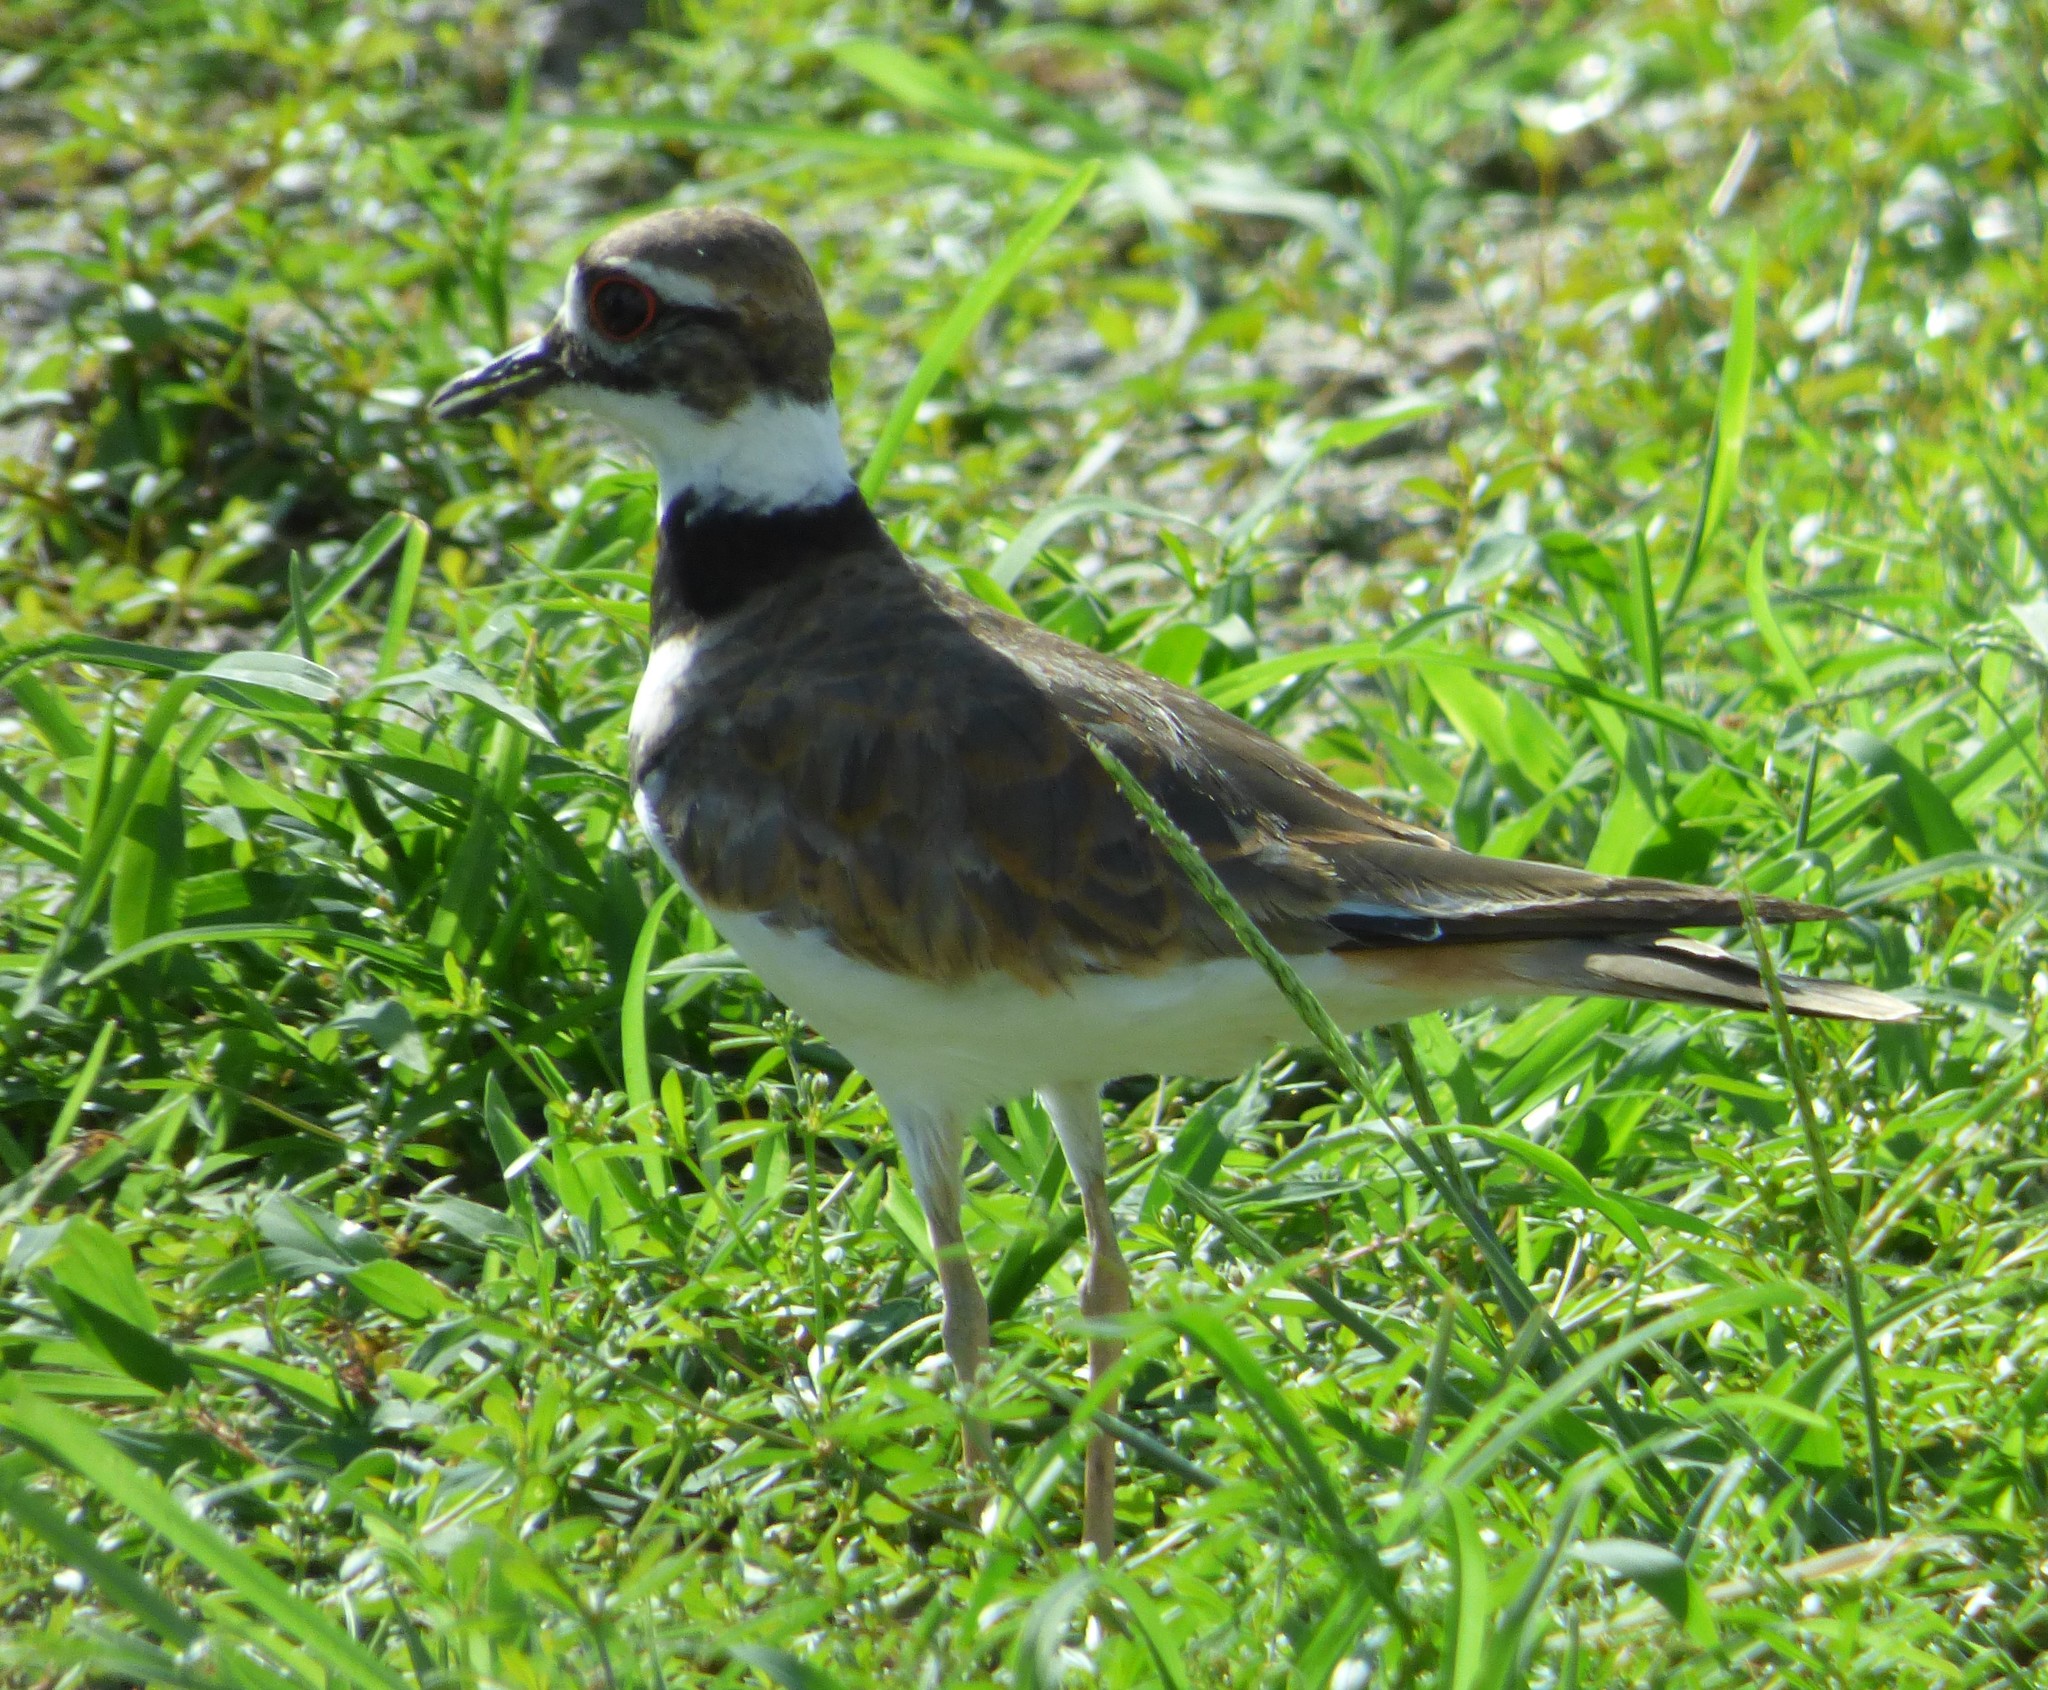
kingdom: Animalia
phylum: Chordata
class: Aves
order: Charadriiformes
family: Charadriidae
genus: Charadrius
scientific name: Charadrius vociferus
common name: Killdeer
